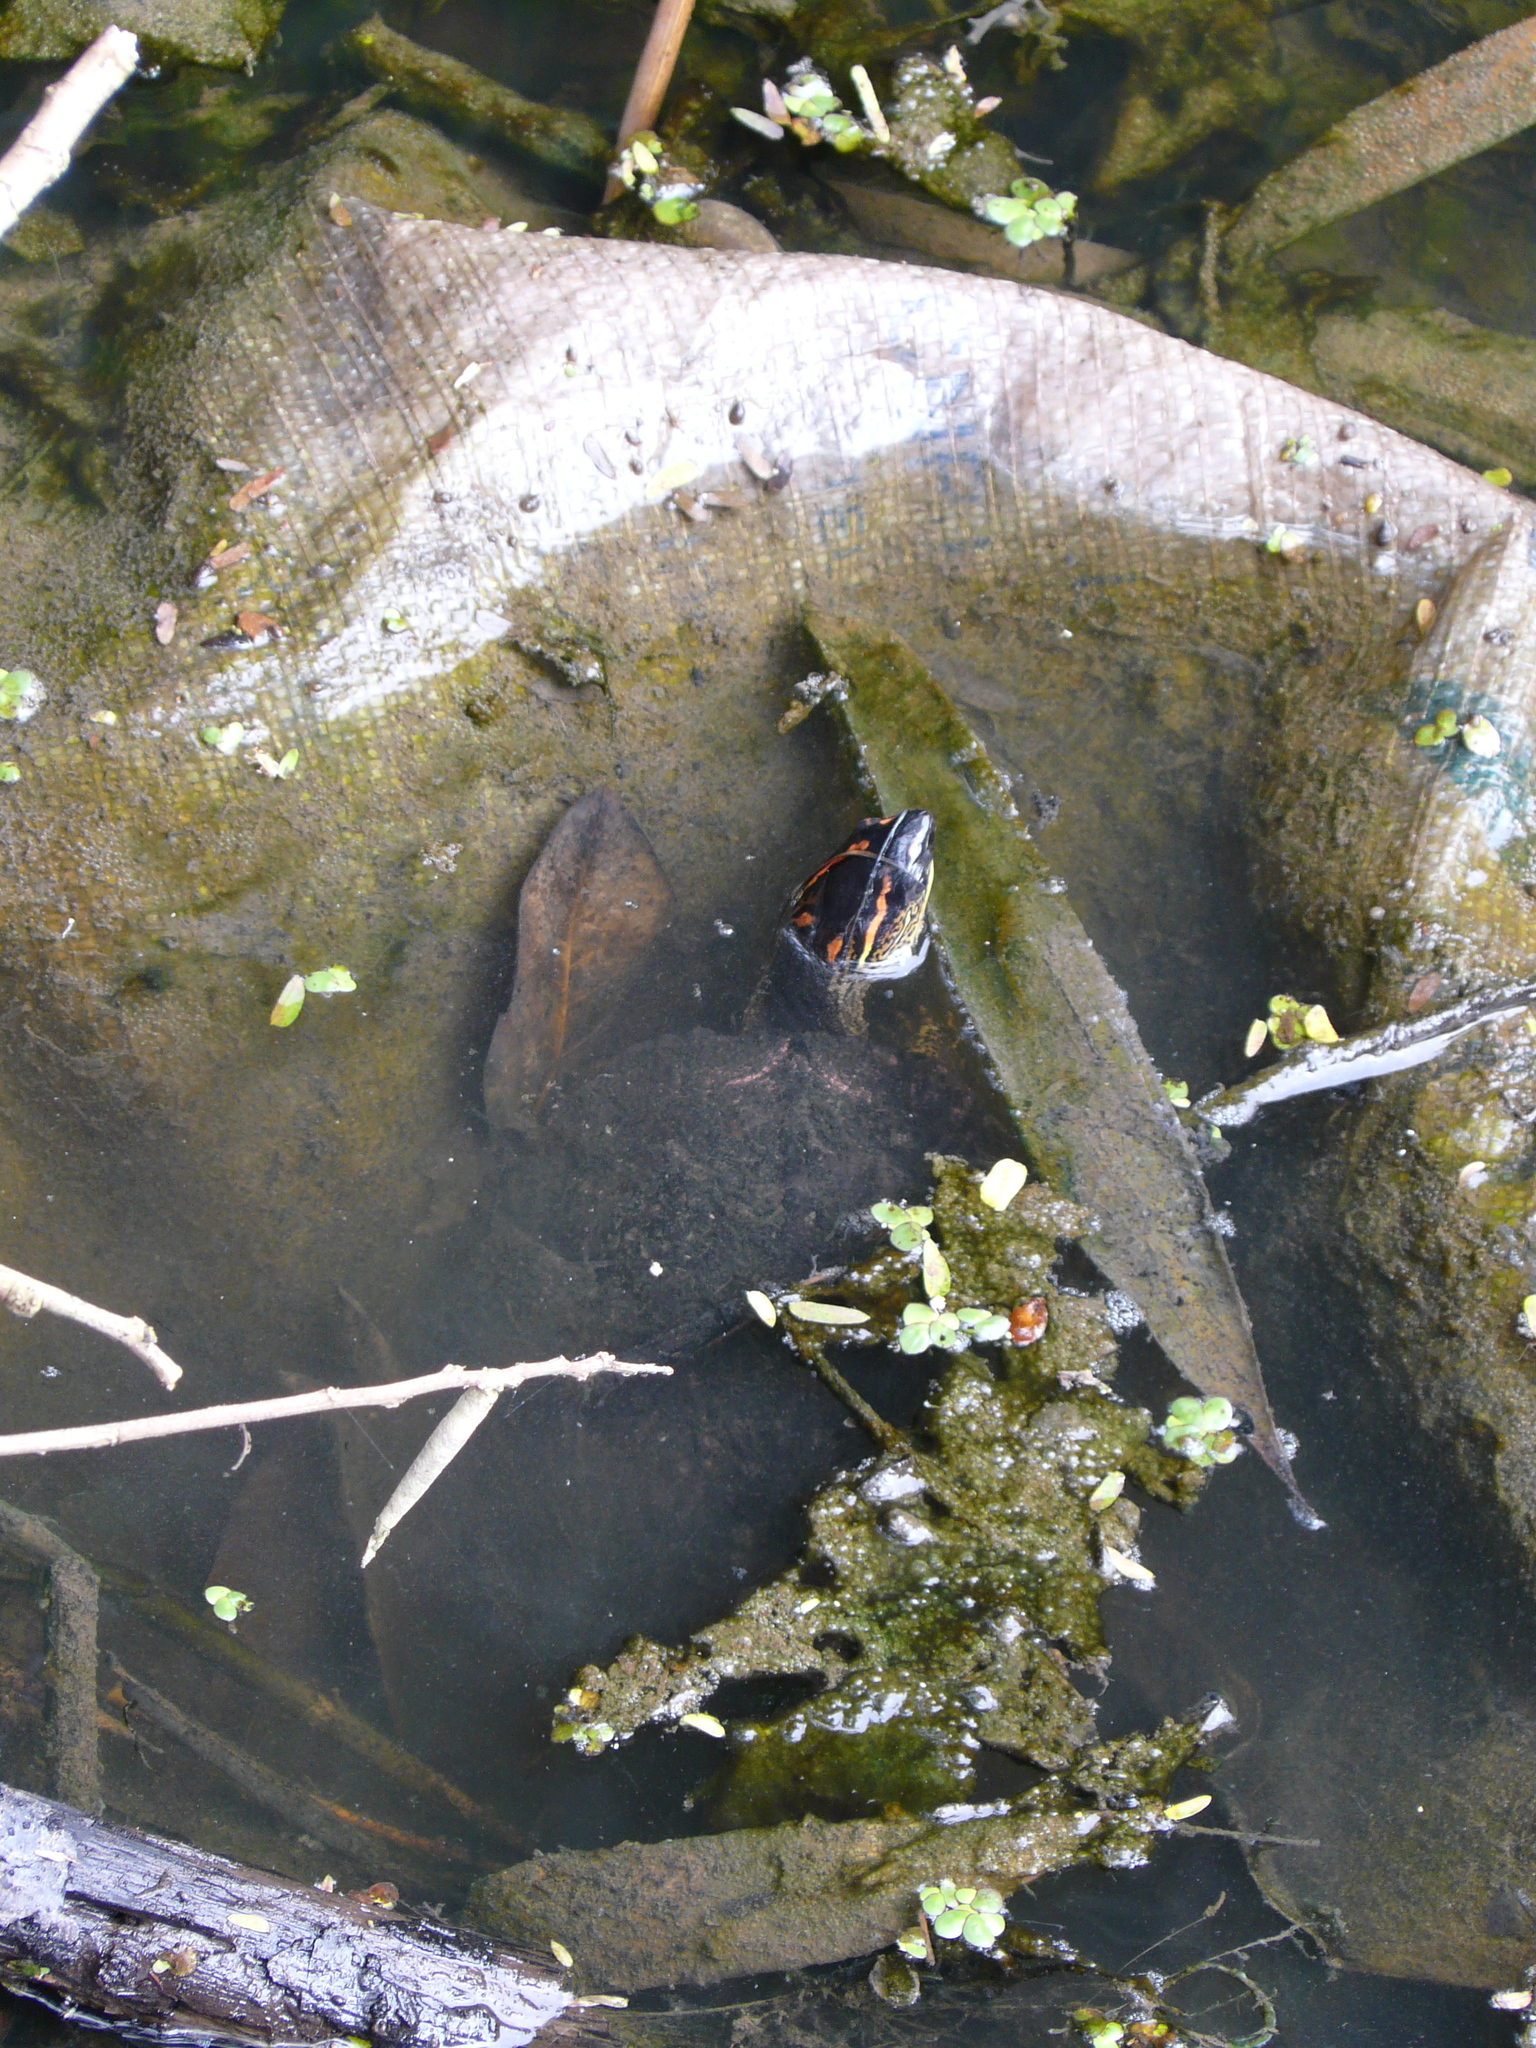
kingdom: Animalia
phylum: Chordata
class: Testudines
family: Geoemydidae
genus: Rhinoclemmys
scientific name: Rhinoclemmys punctularia
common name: Spot-legged turtle
